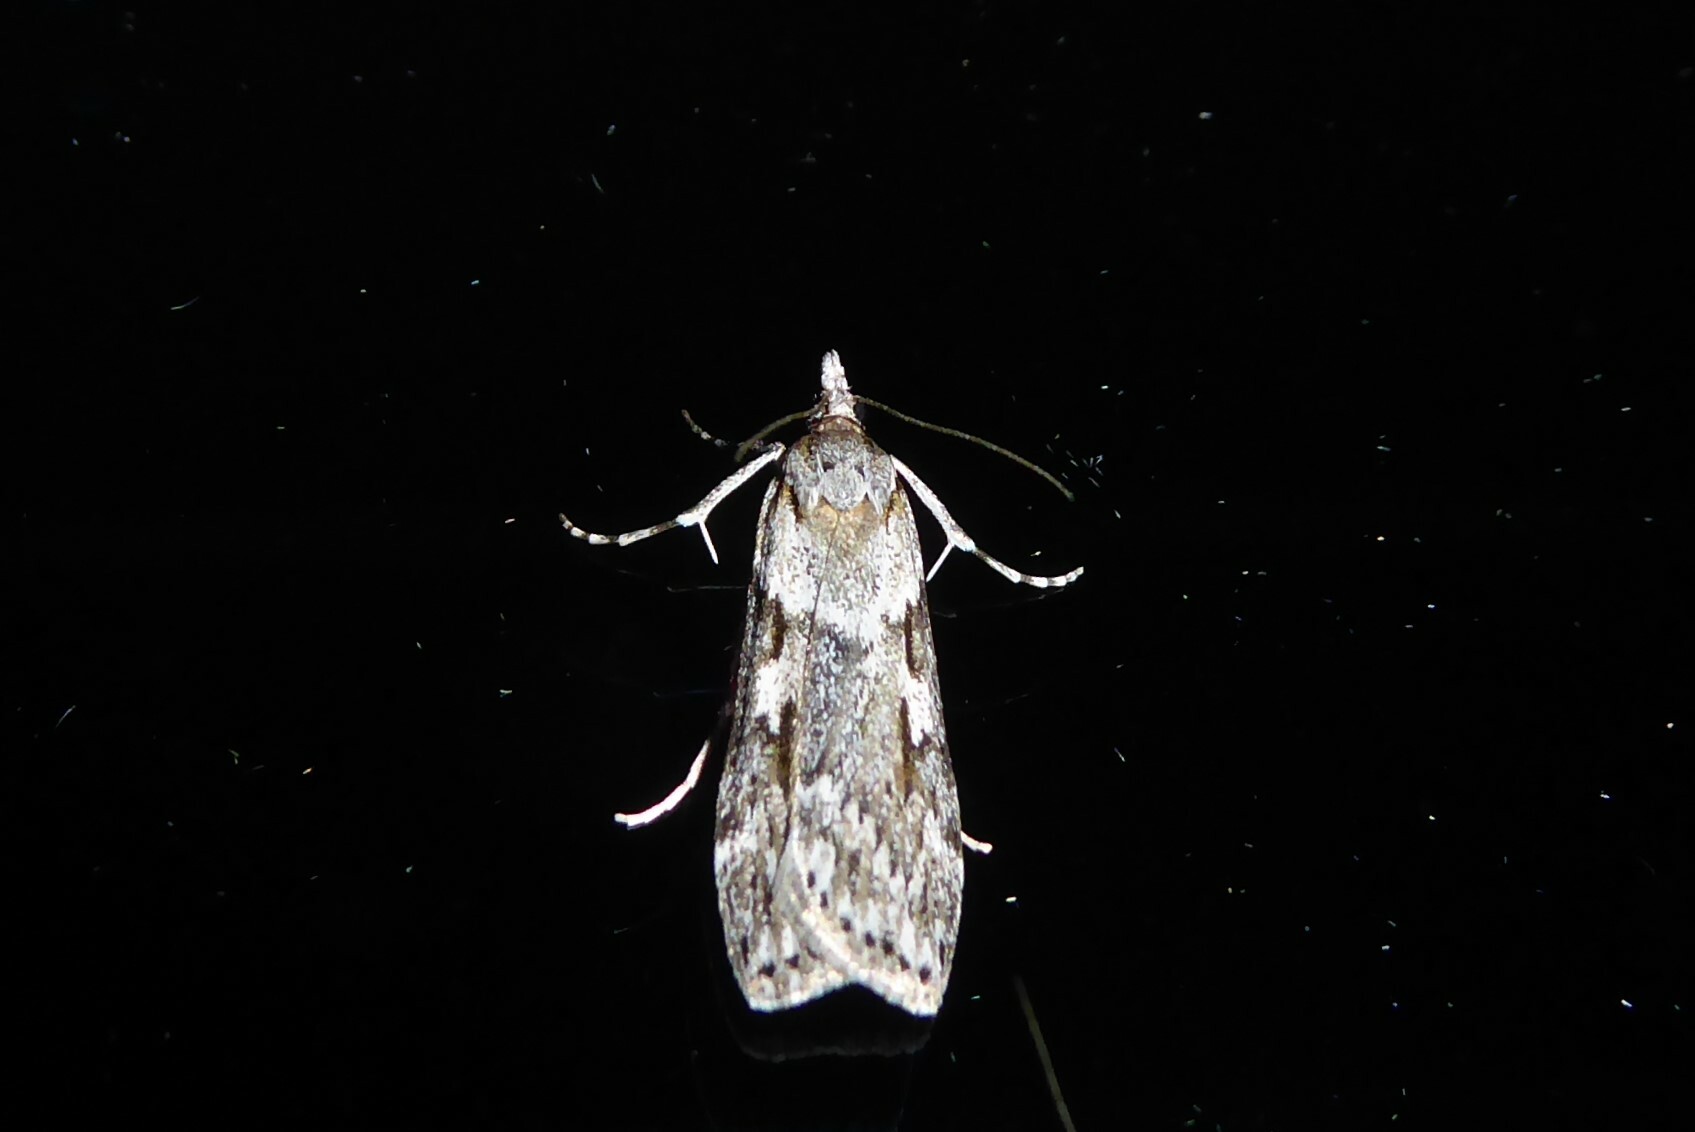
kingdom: Animalia
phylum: Arthropoda
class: Insecta
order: Lepidoptera
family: Crambidae
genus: Scoparia
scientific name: Scoparia halopis
